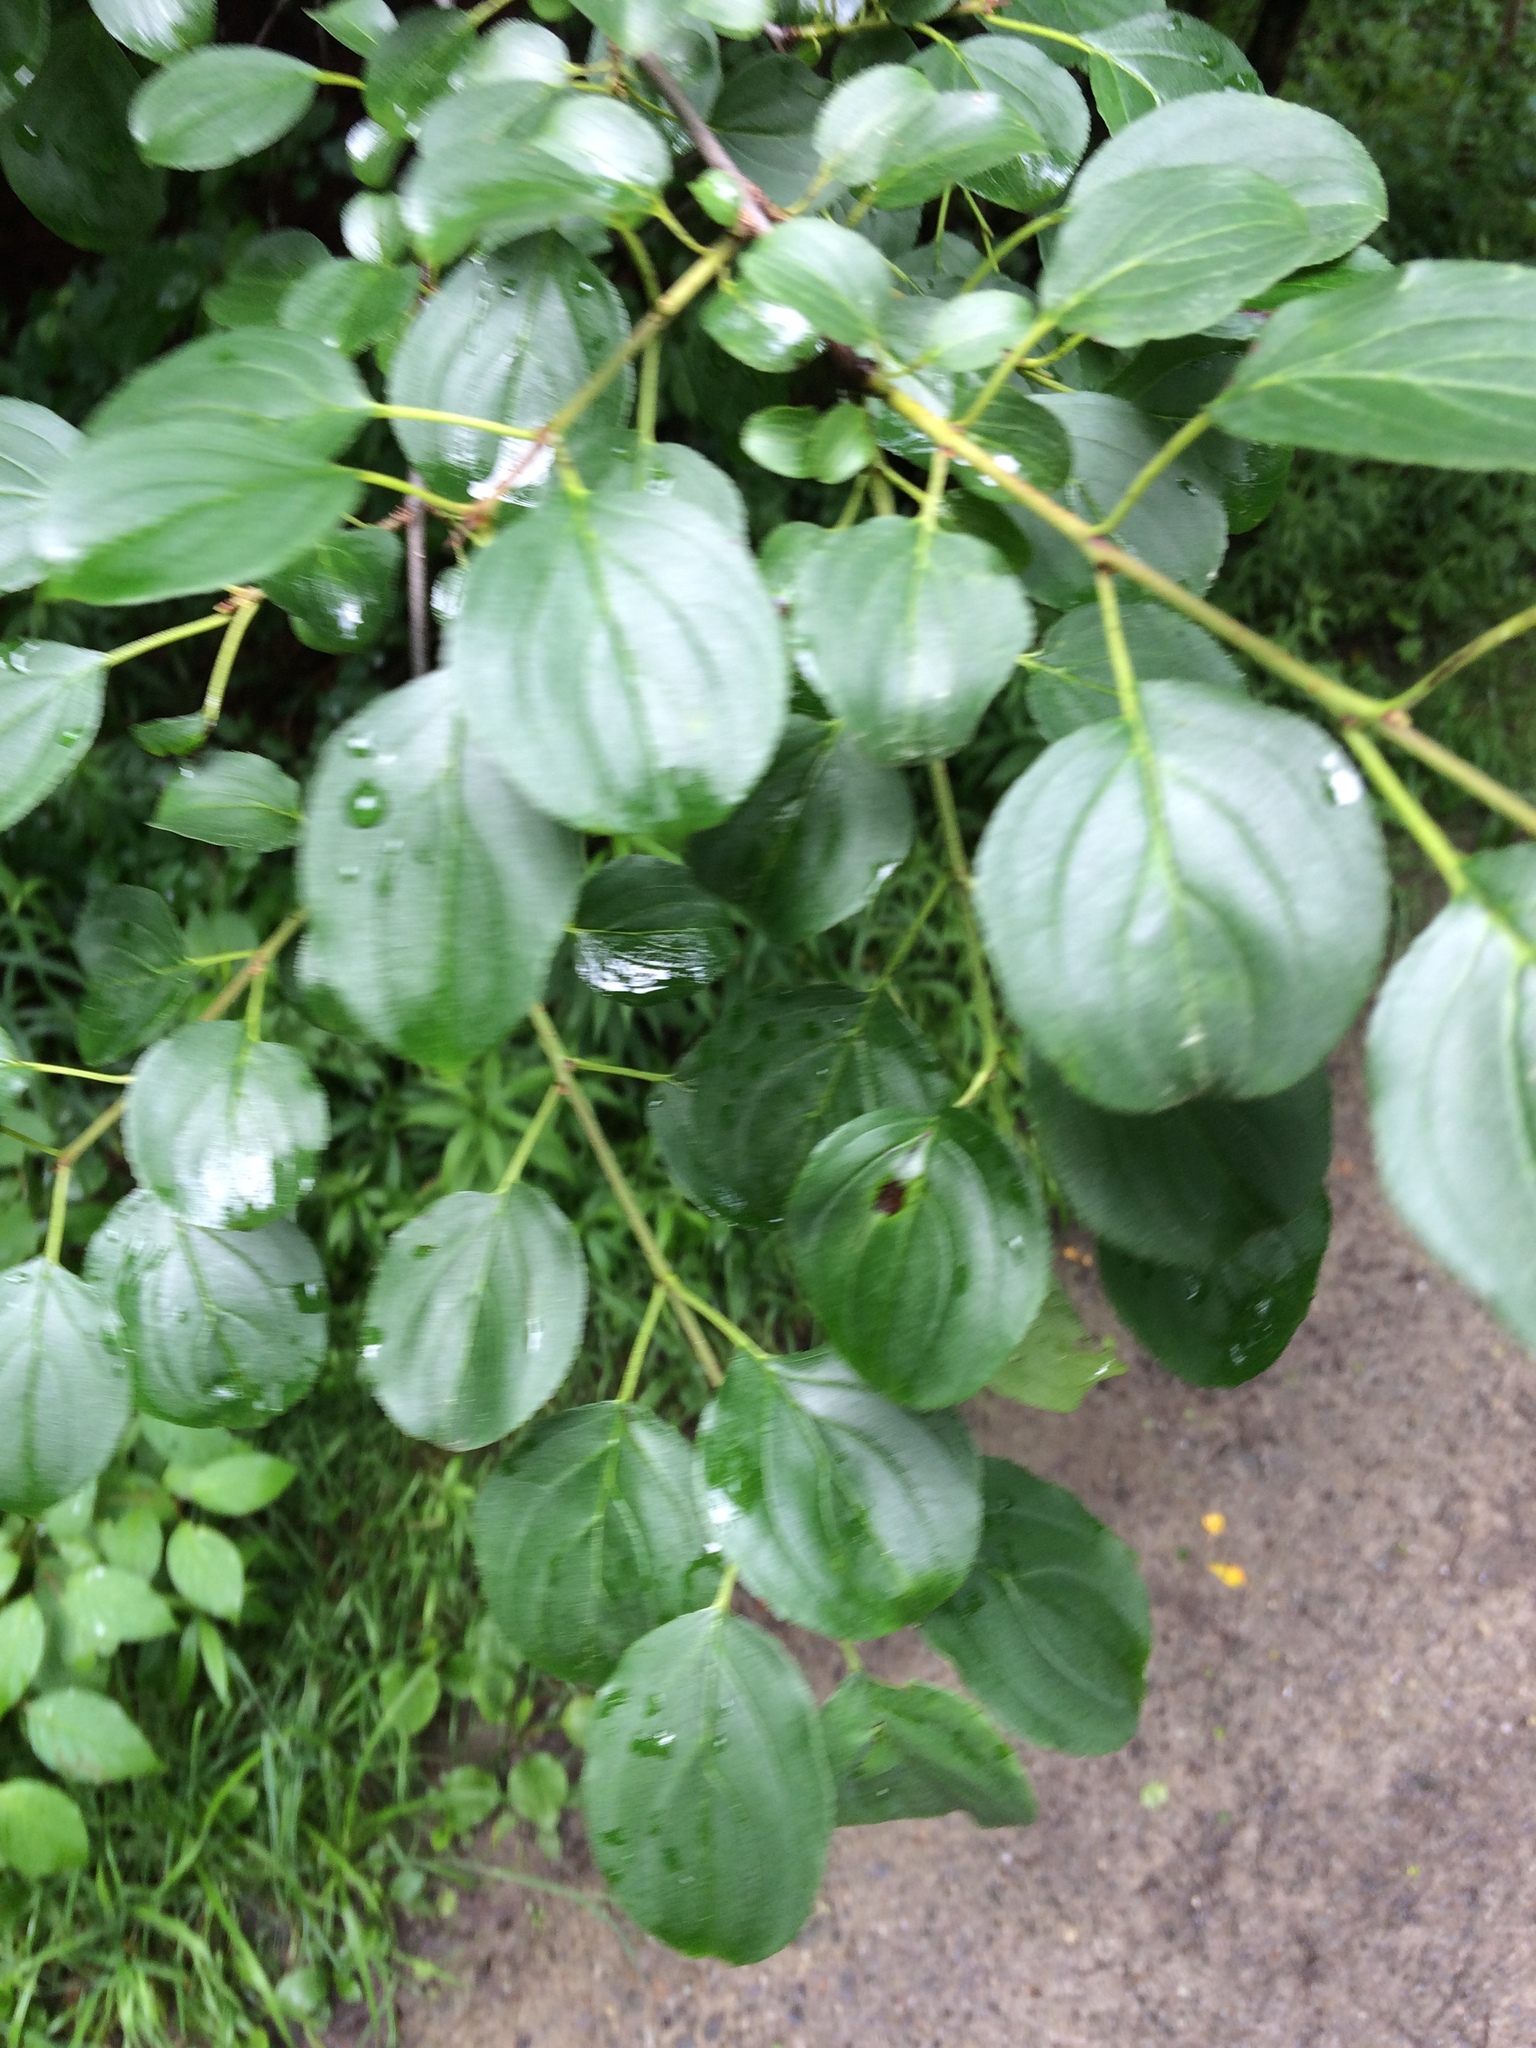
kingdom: Plantae
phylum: Tracheophyta
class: Magnoliopsida
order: Rosales
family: Rhamnaceae
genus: Rhamnus
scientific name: Rhamnus cathartica
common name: Common buckthorn
